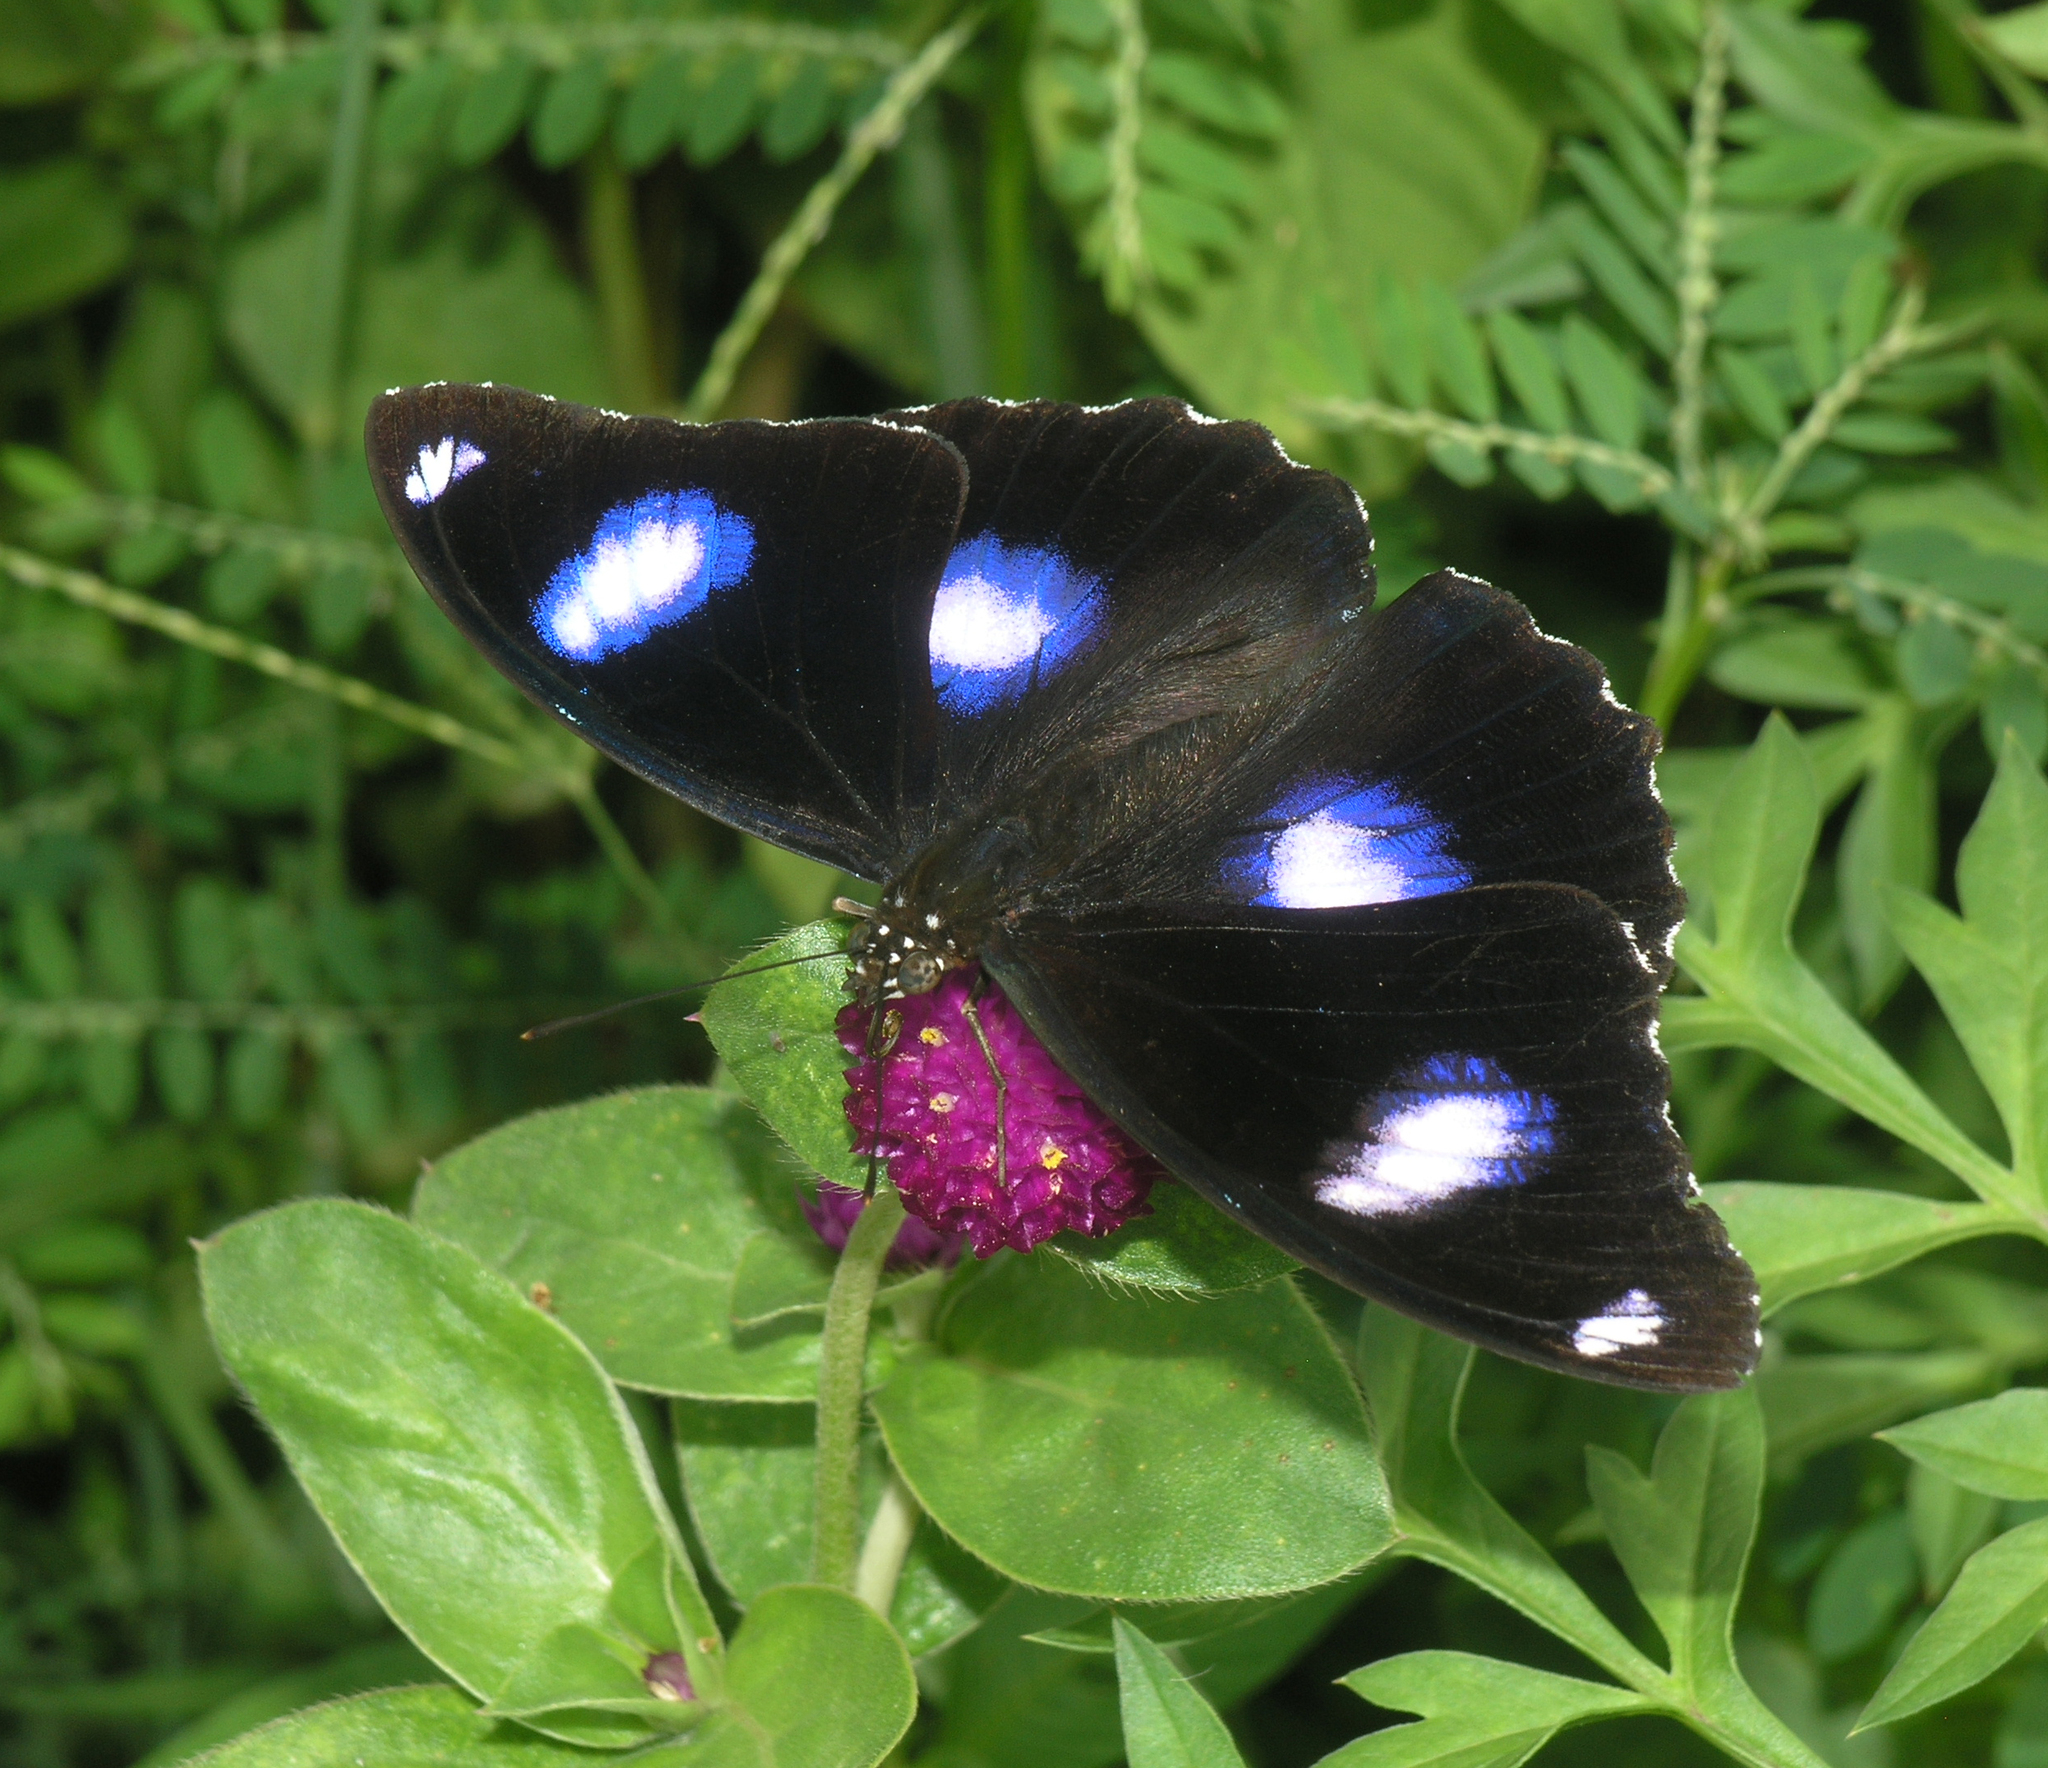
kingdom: Animalia
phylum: Arthropoda
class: Insecta
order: Lepidoptera
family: Nymphalidae
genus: Hypolimnas
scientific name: Hypolimnas bolina
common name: Great eggfly
